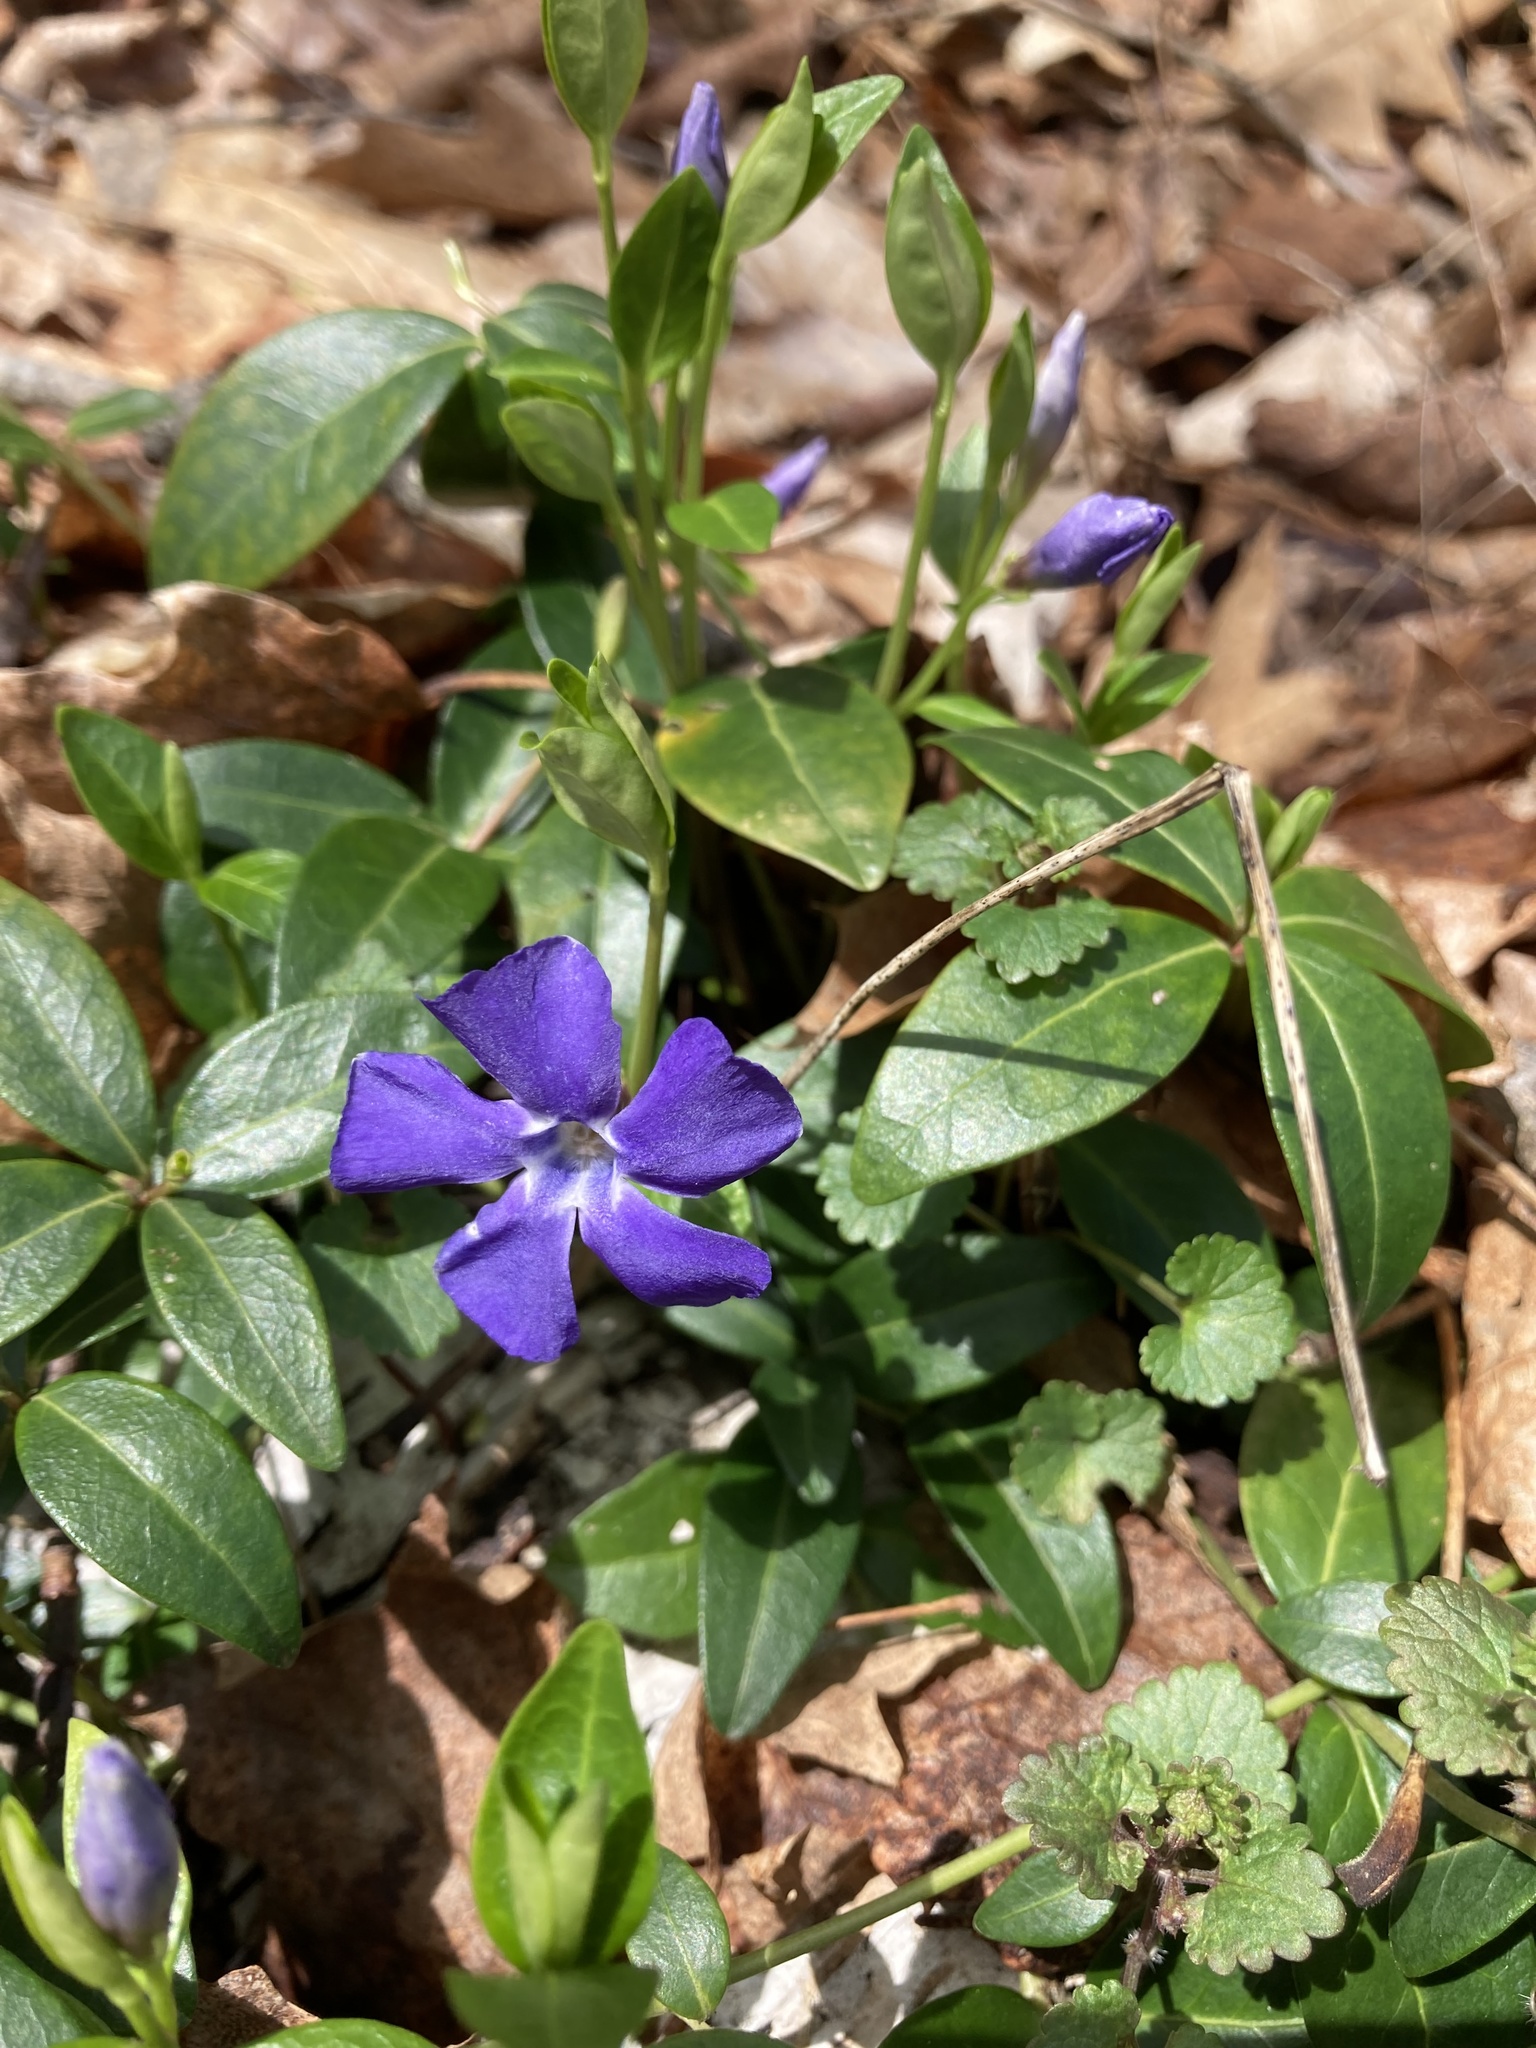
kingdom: Plantae
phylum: Tracheophyta
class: Magnoliopsida
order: Gentianales
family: Apocynaceae
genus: Vinca
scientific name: Vinca minor
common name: Lesser periwinkle
